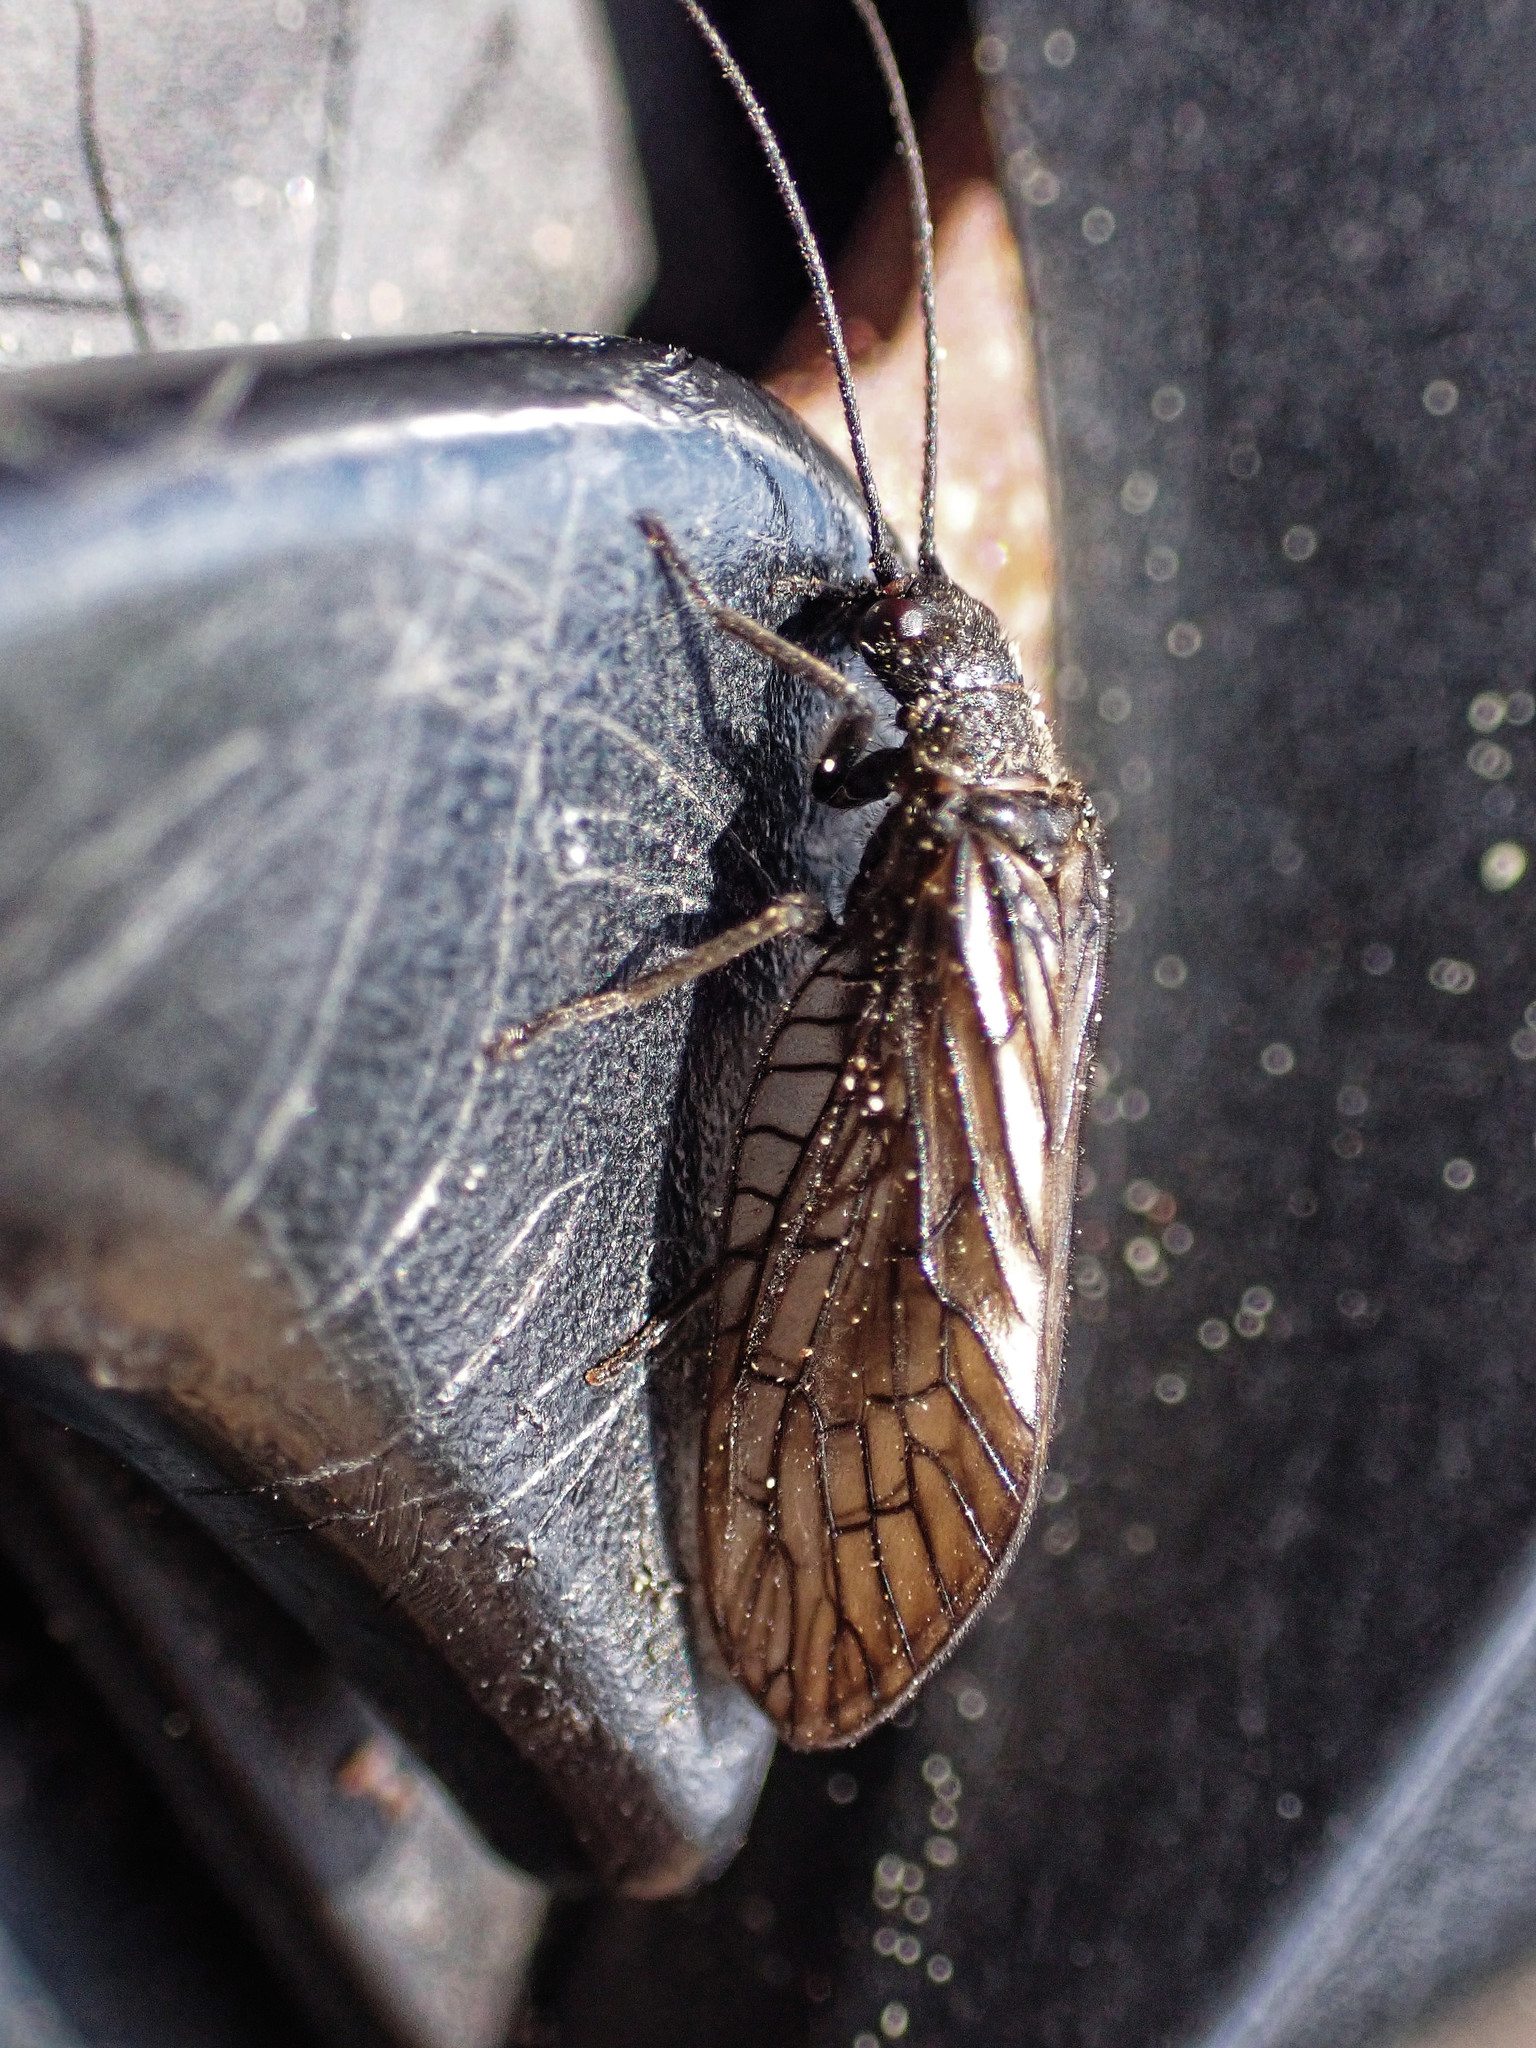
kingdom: Animalia
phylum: Arthropoda
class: Insecta
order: Megaloptera
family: Sialidae
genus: Sialis
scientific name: Sialis
